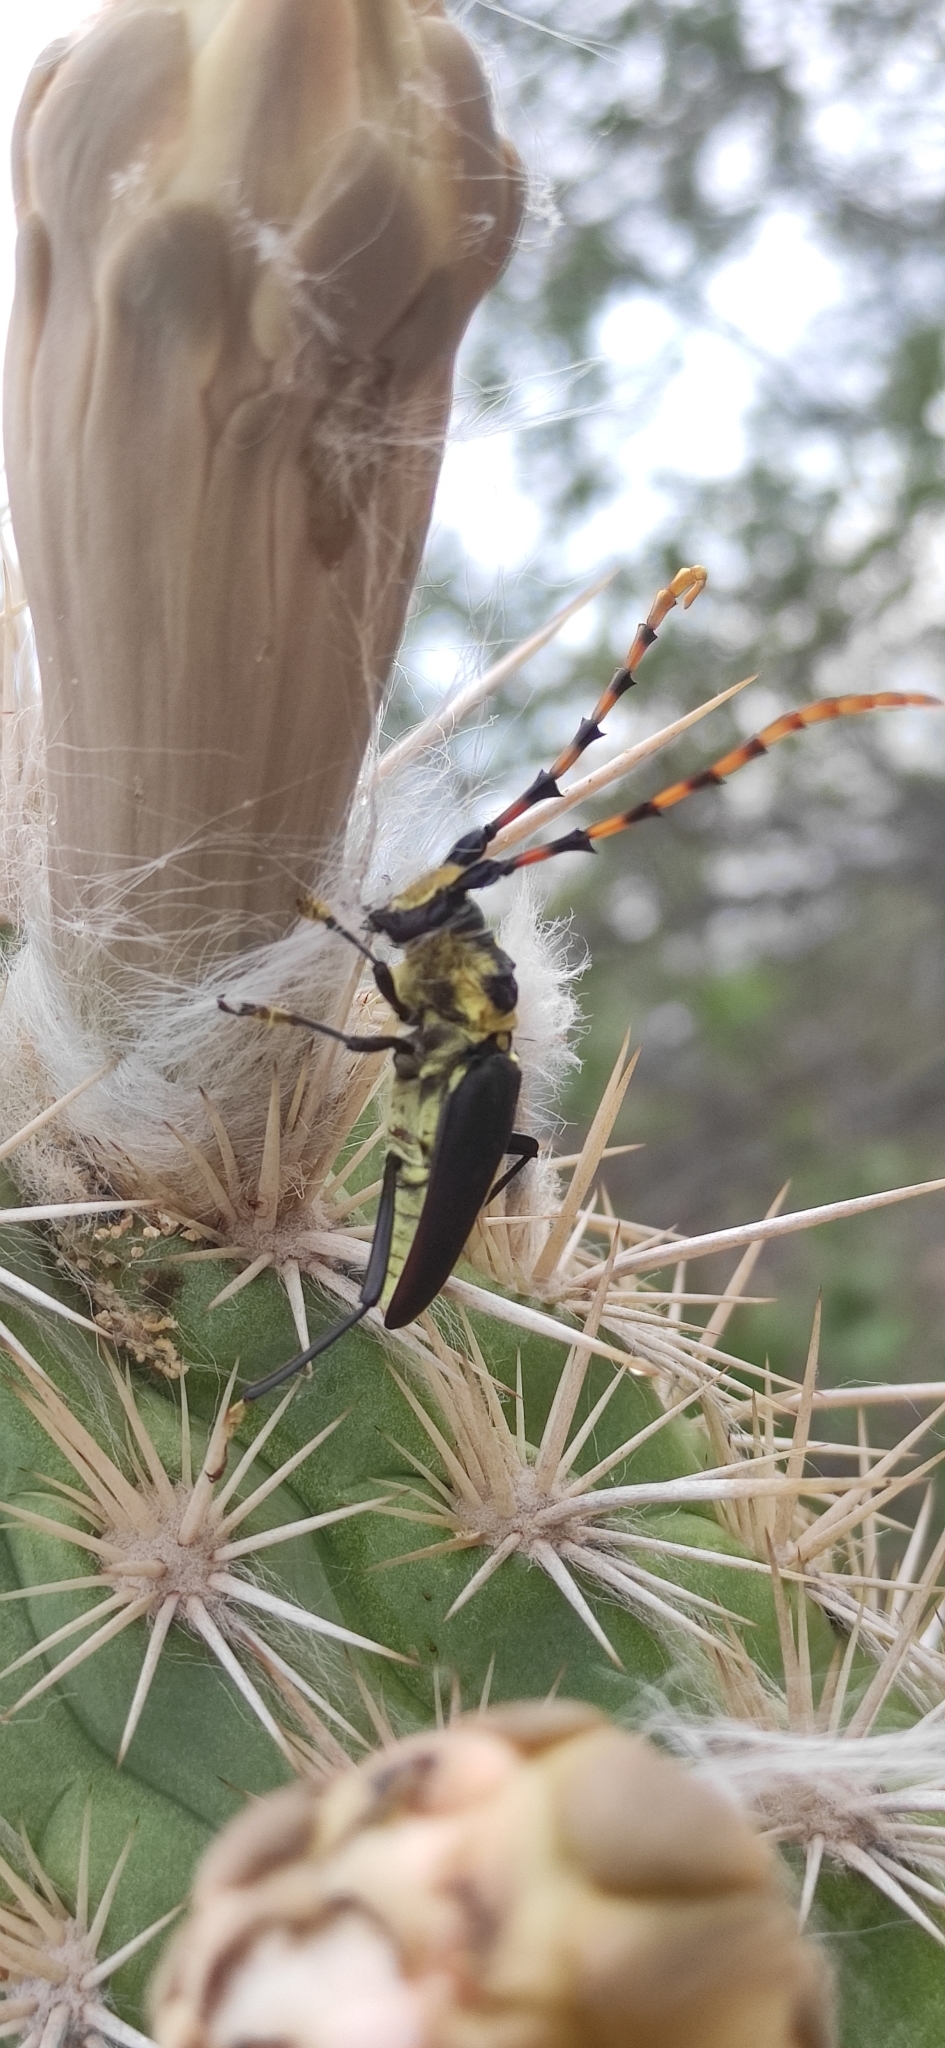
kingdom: Animalia
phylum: Arthropoda
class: Insecta
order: Coleoptera
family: Cerambycidae
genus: Dorcacerus
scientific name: Dorcacerus barbatus
